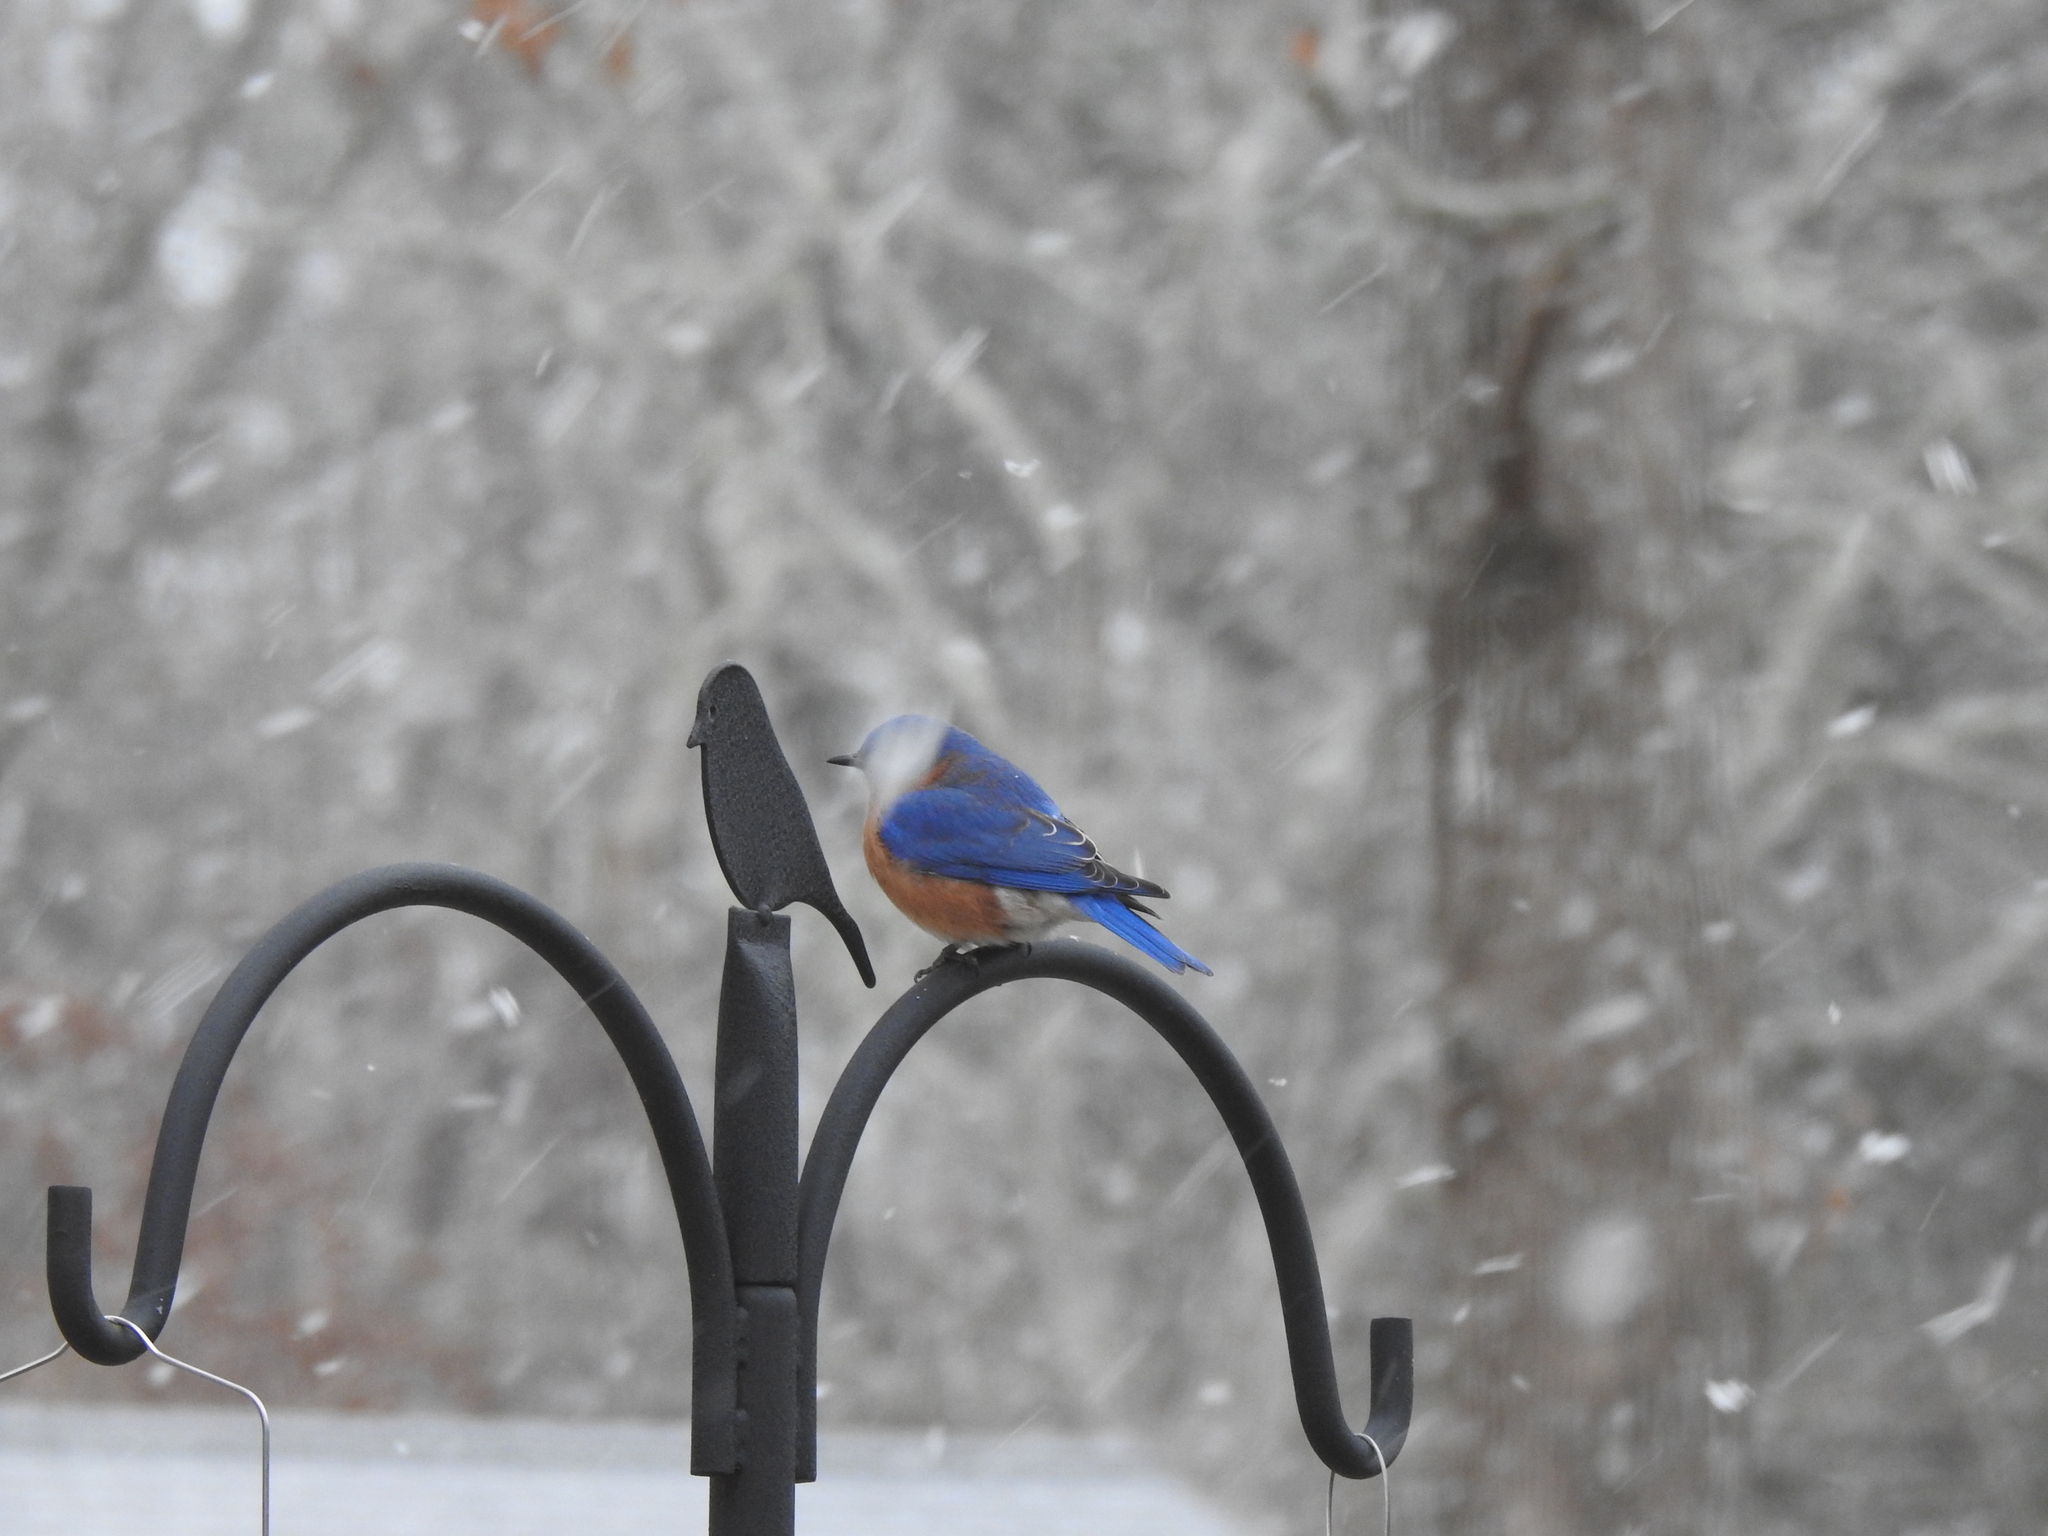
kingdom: Animalia
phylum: Chordata
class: Aves
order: Passeriformes
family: Turdidae
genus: Sialia
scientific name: Sialia sialis
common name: Eastern bluebird
